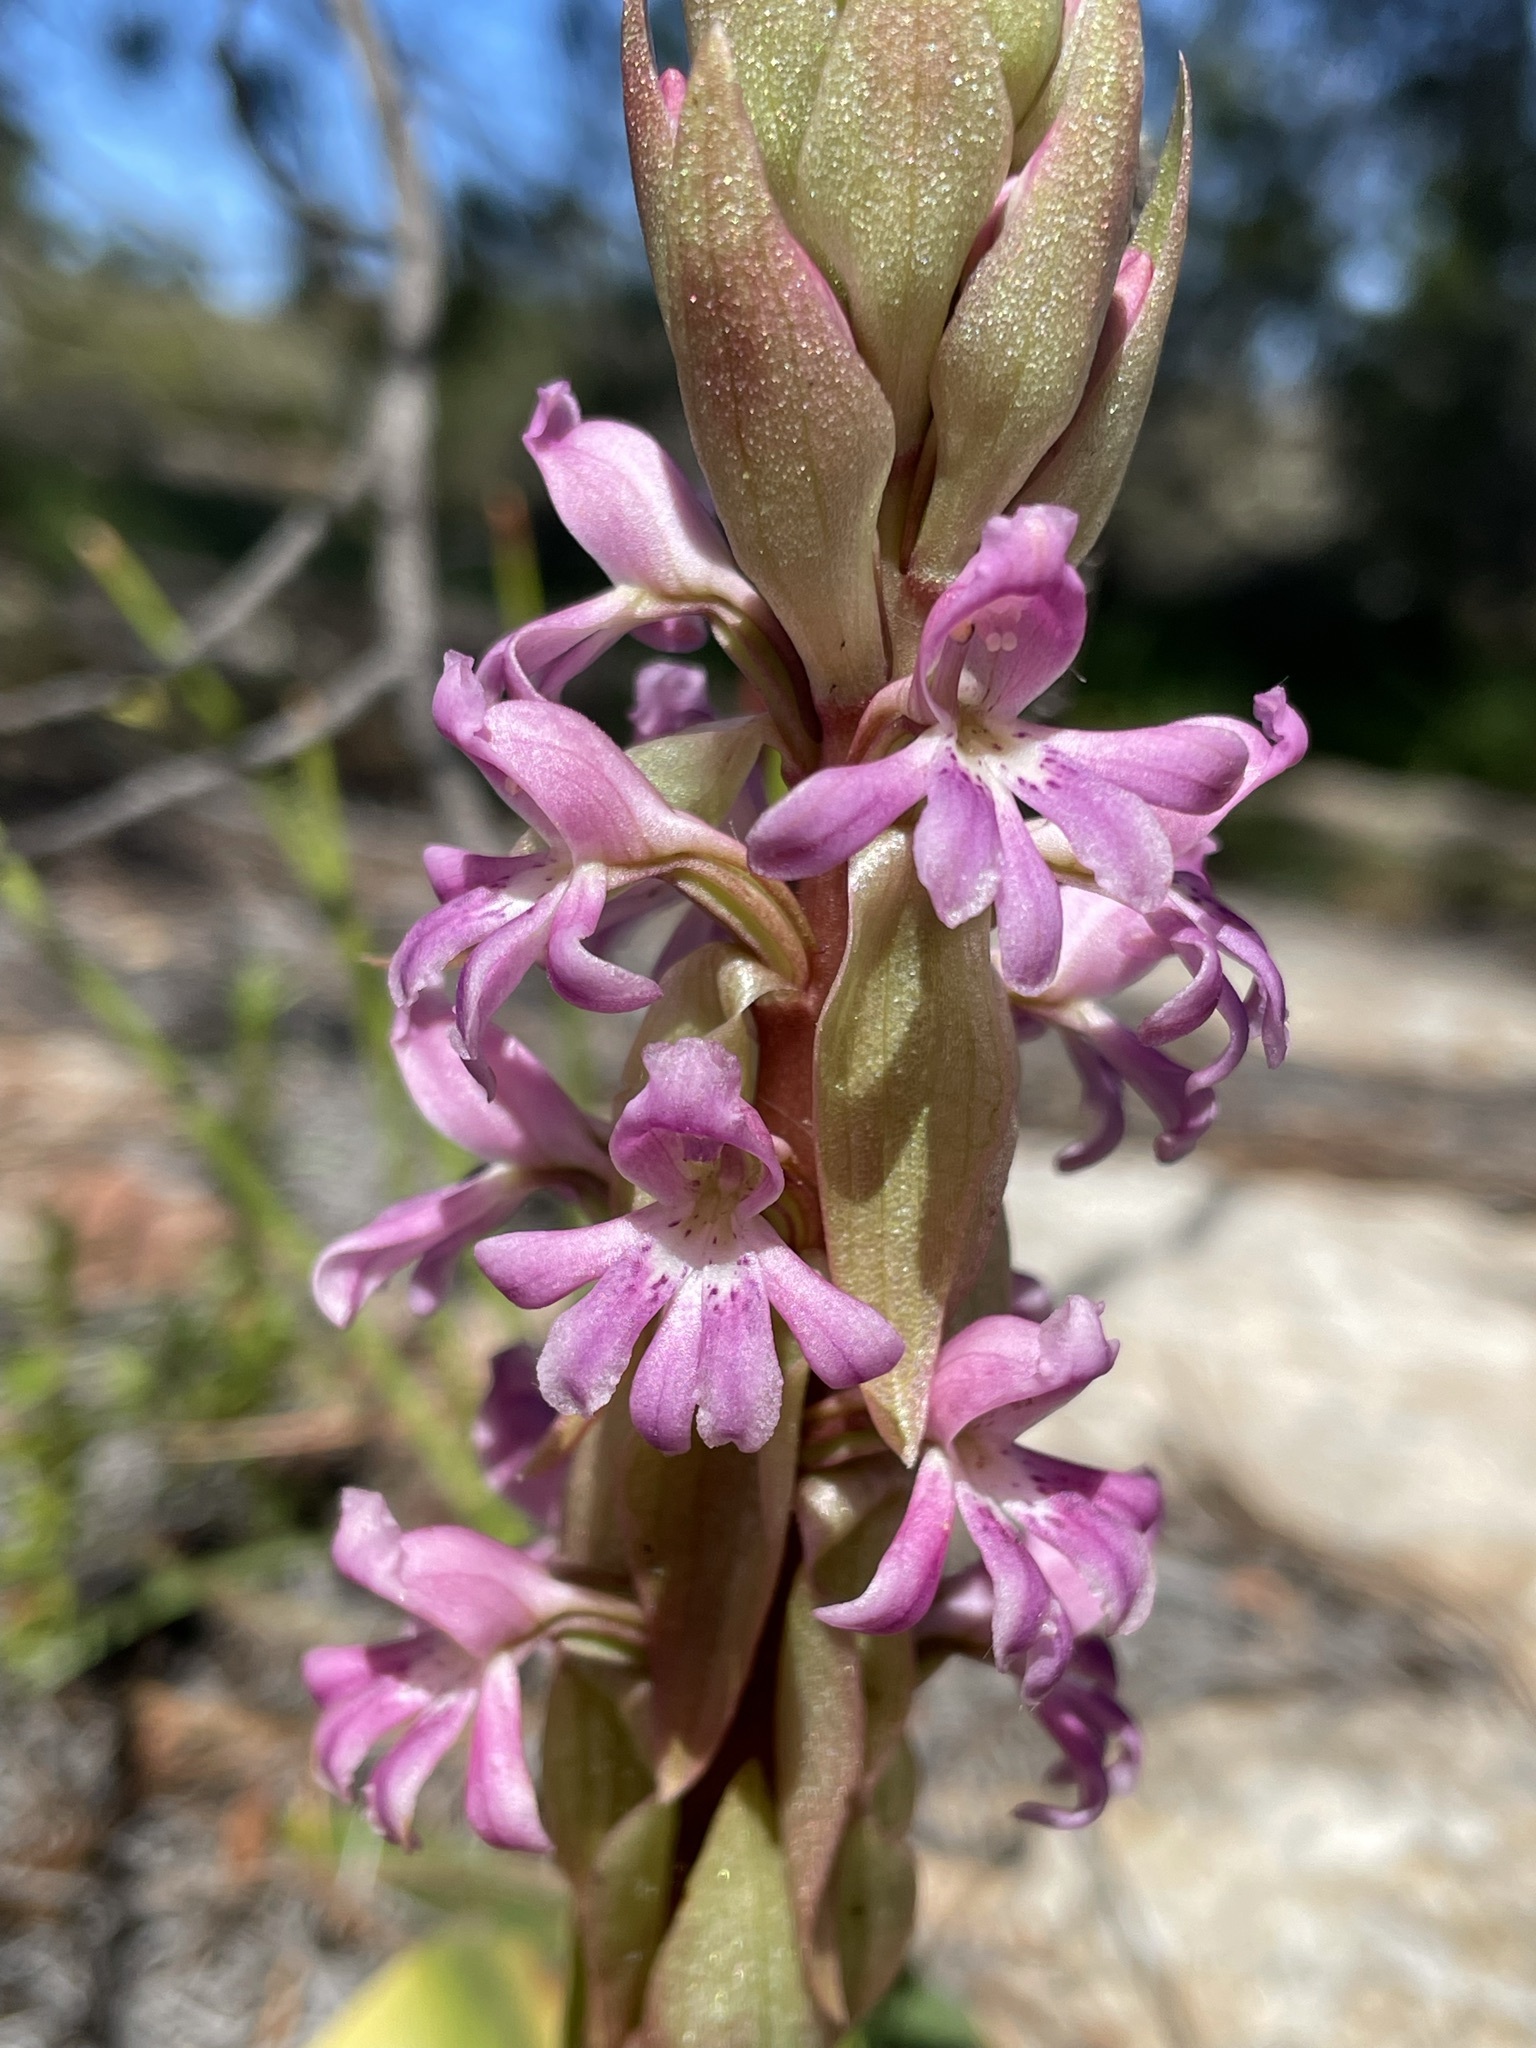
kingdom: Plantae
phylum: Tracheophyta
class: Liliopsida
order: Asparagales
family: Orchidaceae
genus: Satyrium
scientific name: Satyrium erectum
